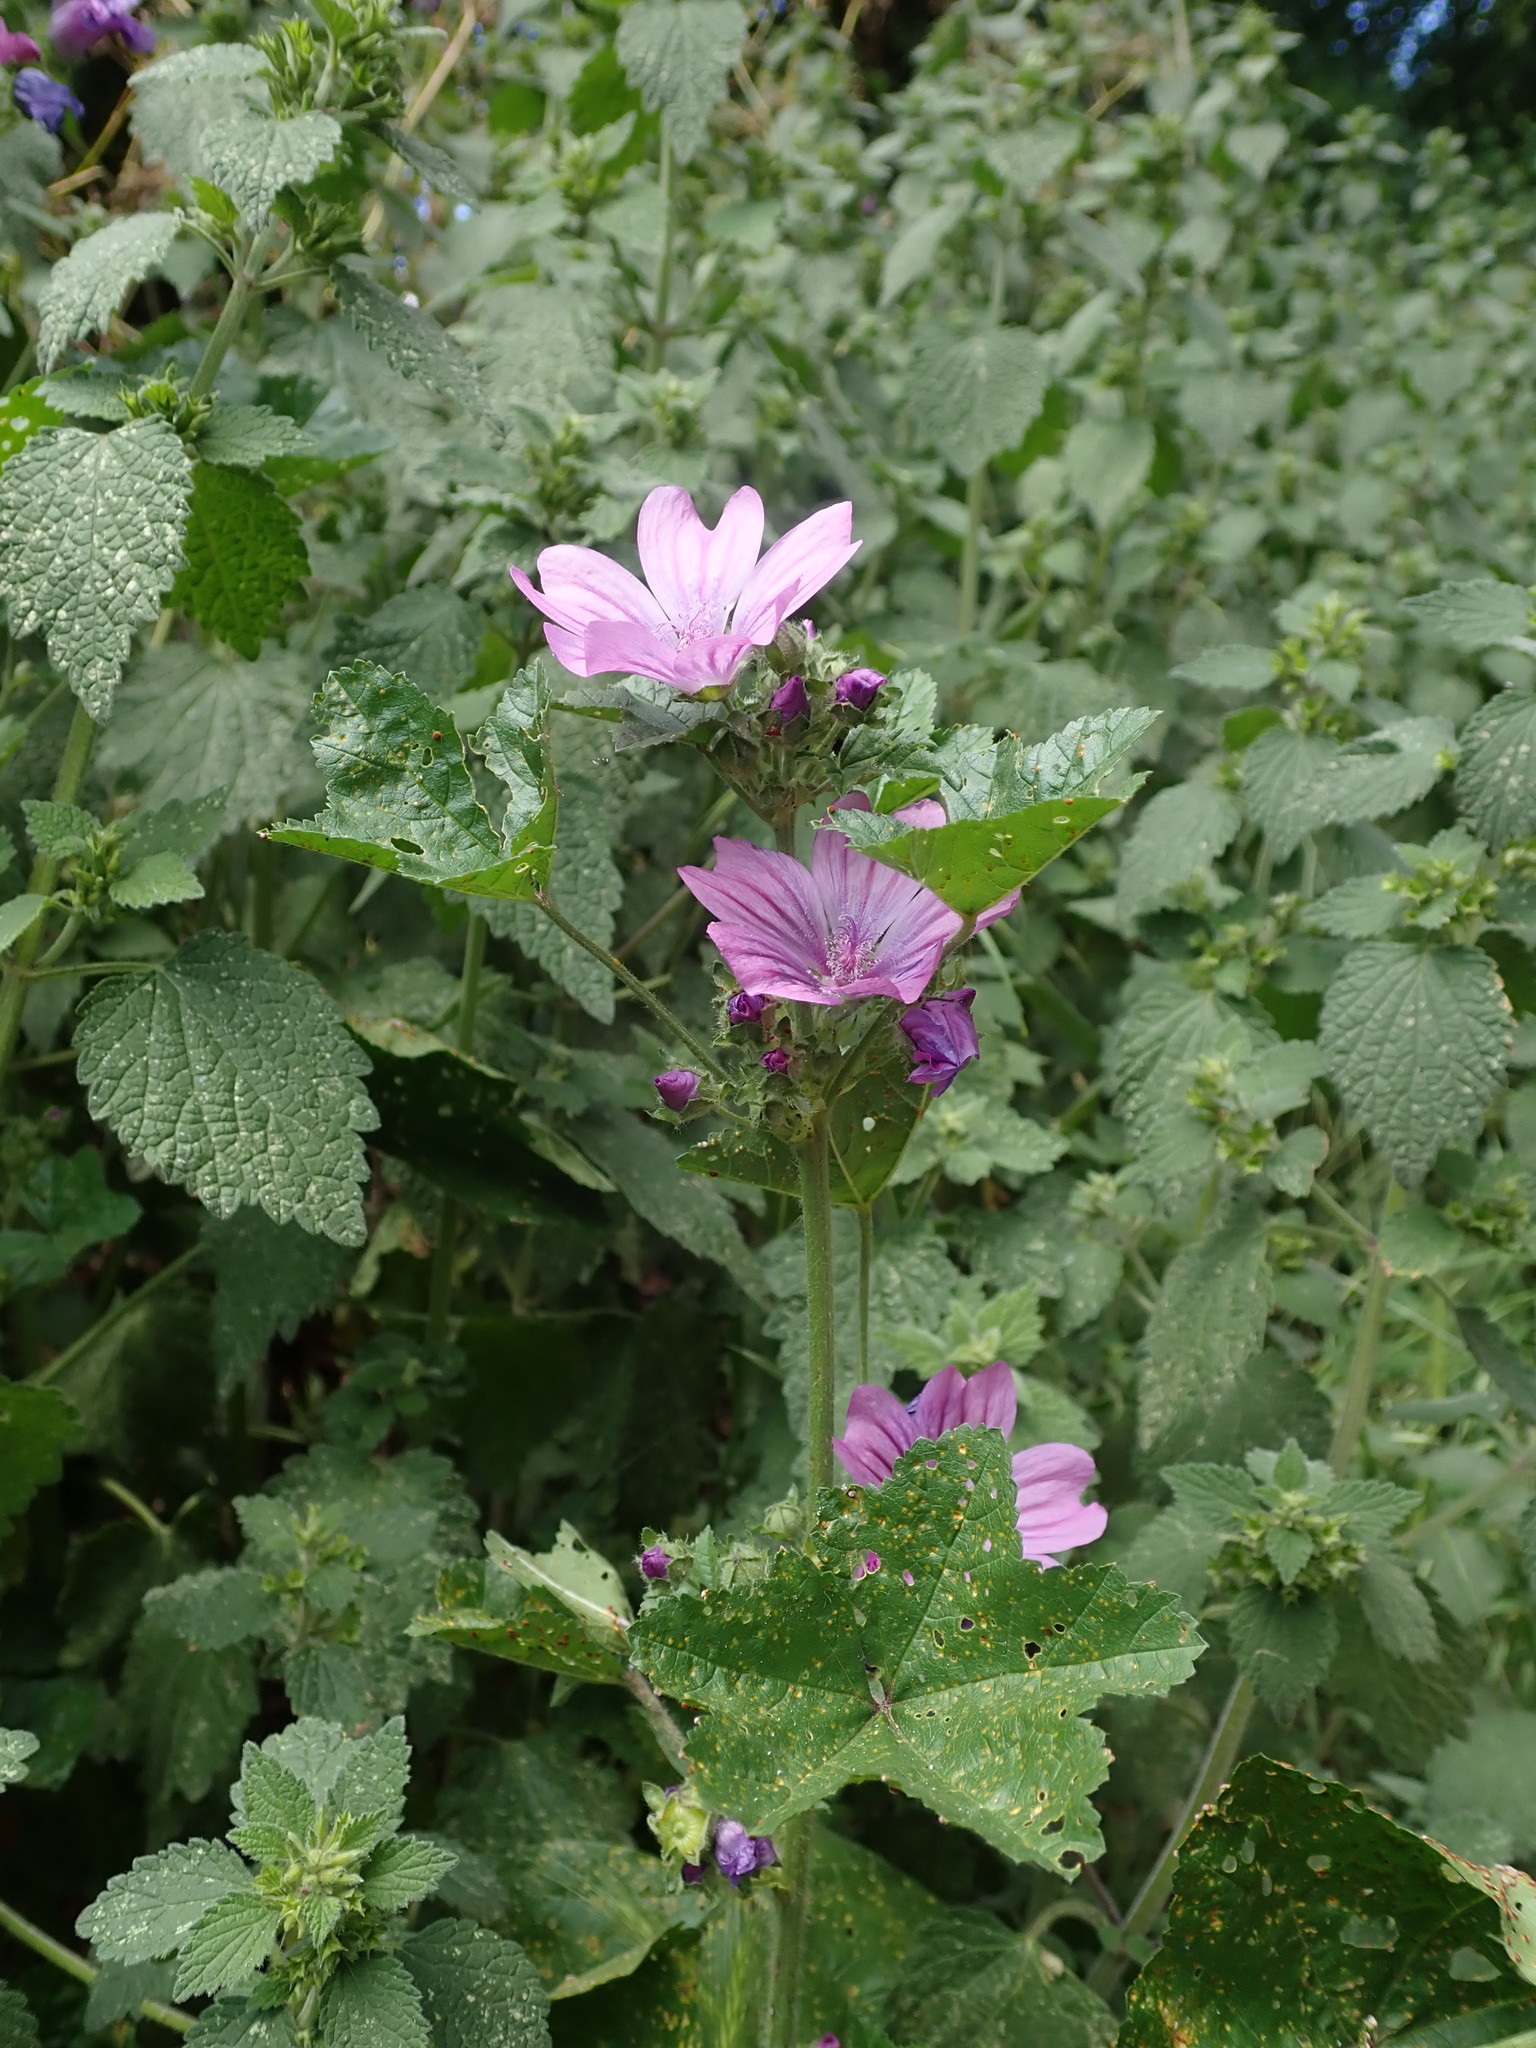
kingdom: Plantae
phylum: Tracheophyta
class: Magnoliopsida
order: Malvales
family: Malvaceae
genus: Malva
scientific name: Malva sylvestris
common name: Common mallow
